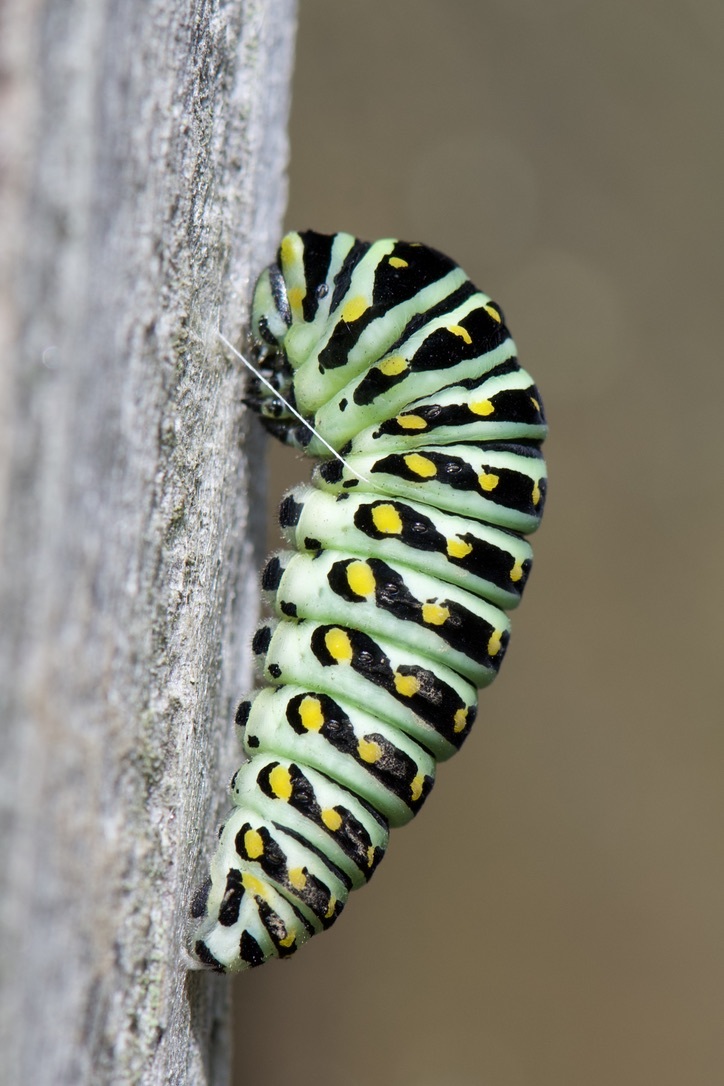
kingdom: Animalia
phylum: Arthropoda
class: Insecta
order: Lepidoptera
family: Papilionidae
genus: Papilio
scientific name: Papilio polyxenes
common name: Black swallowtail
